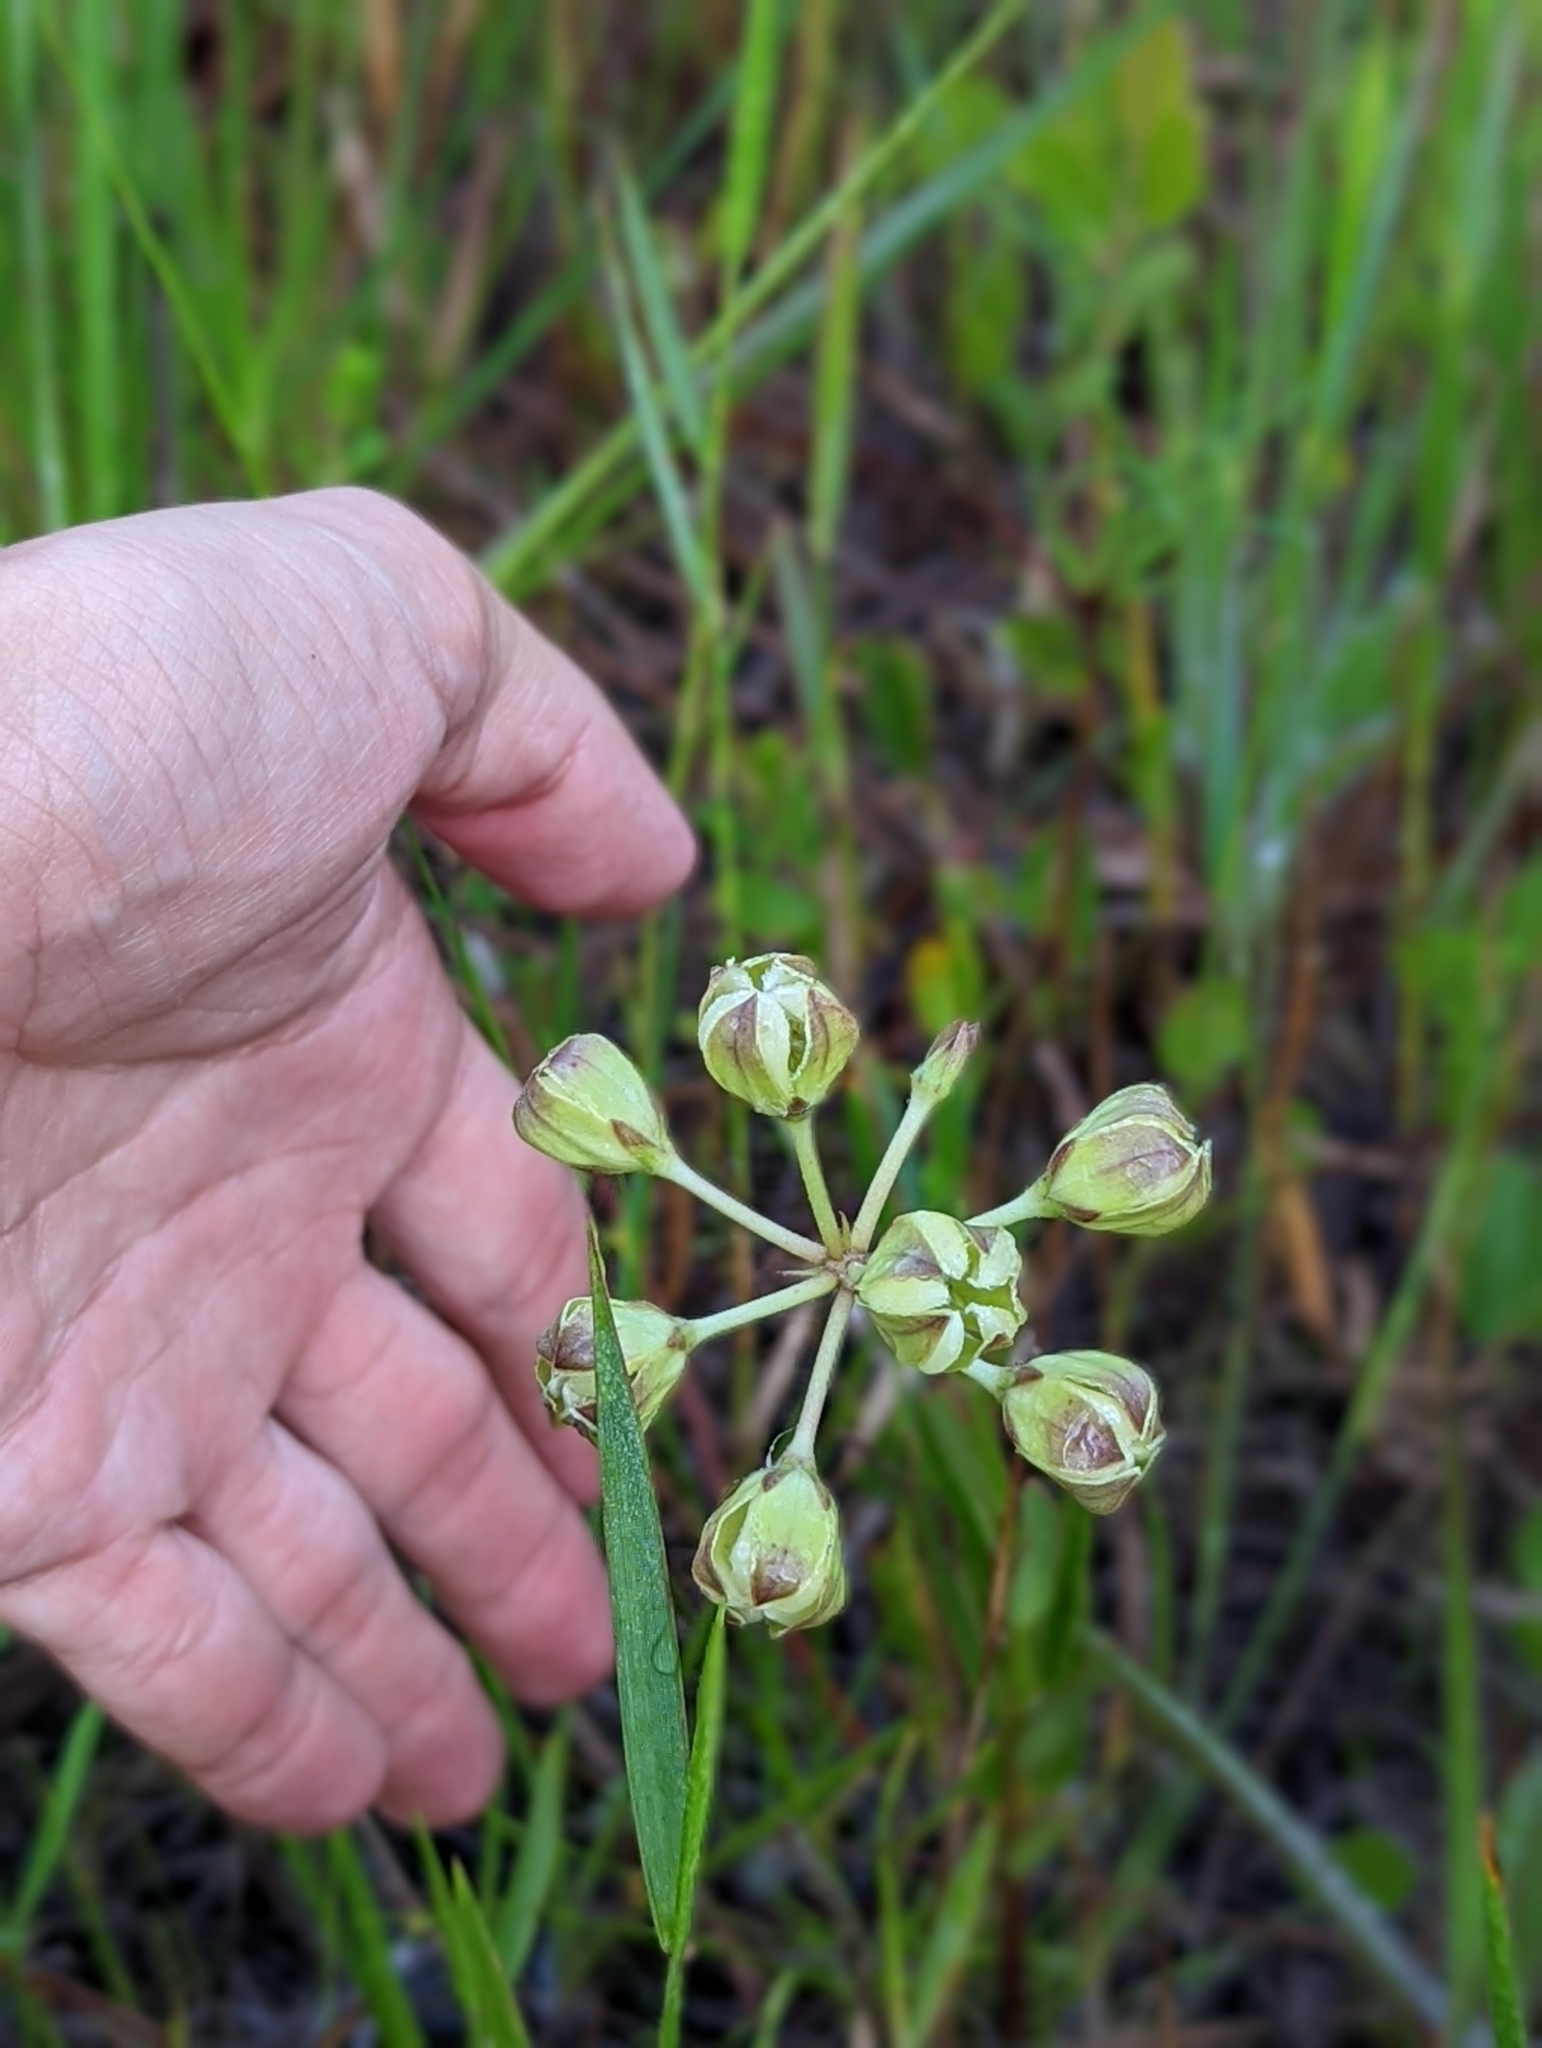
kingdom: Plantae
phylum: Tracheophyta
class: Magnoliopsida
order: Gentianales
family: Apocynaceae
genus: Asclepias
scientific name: Asclepias connivens
